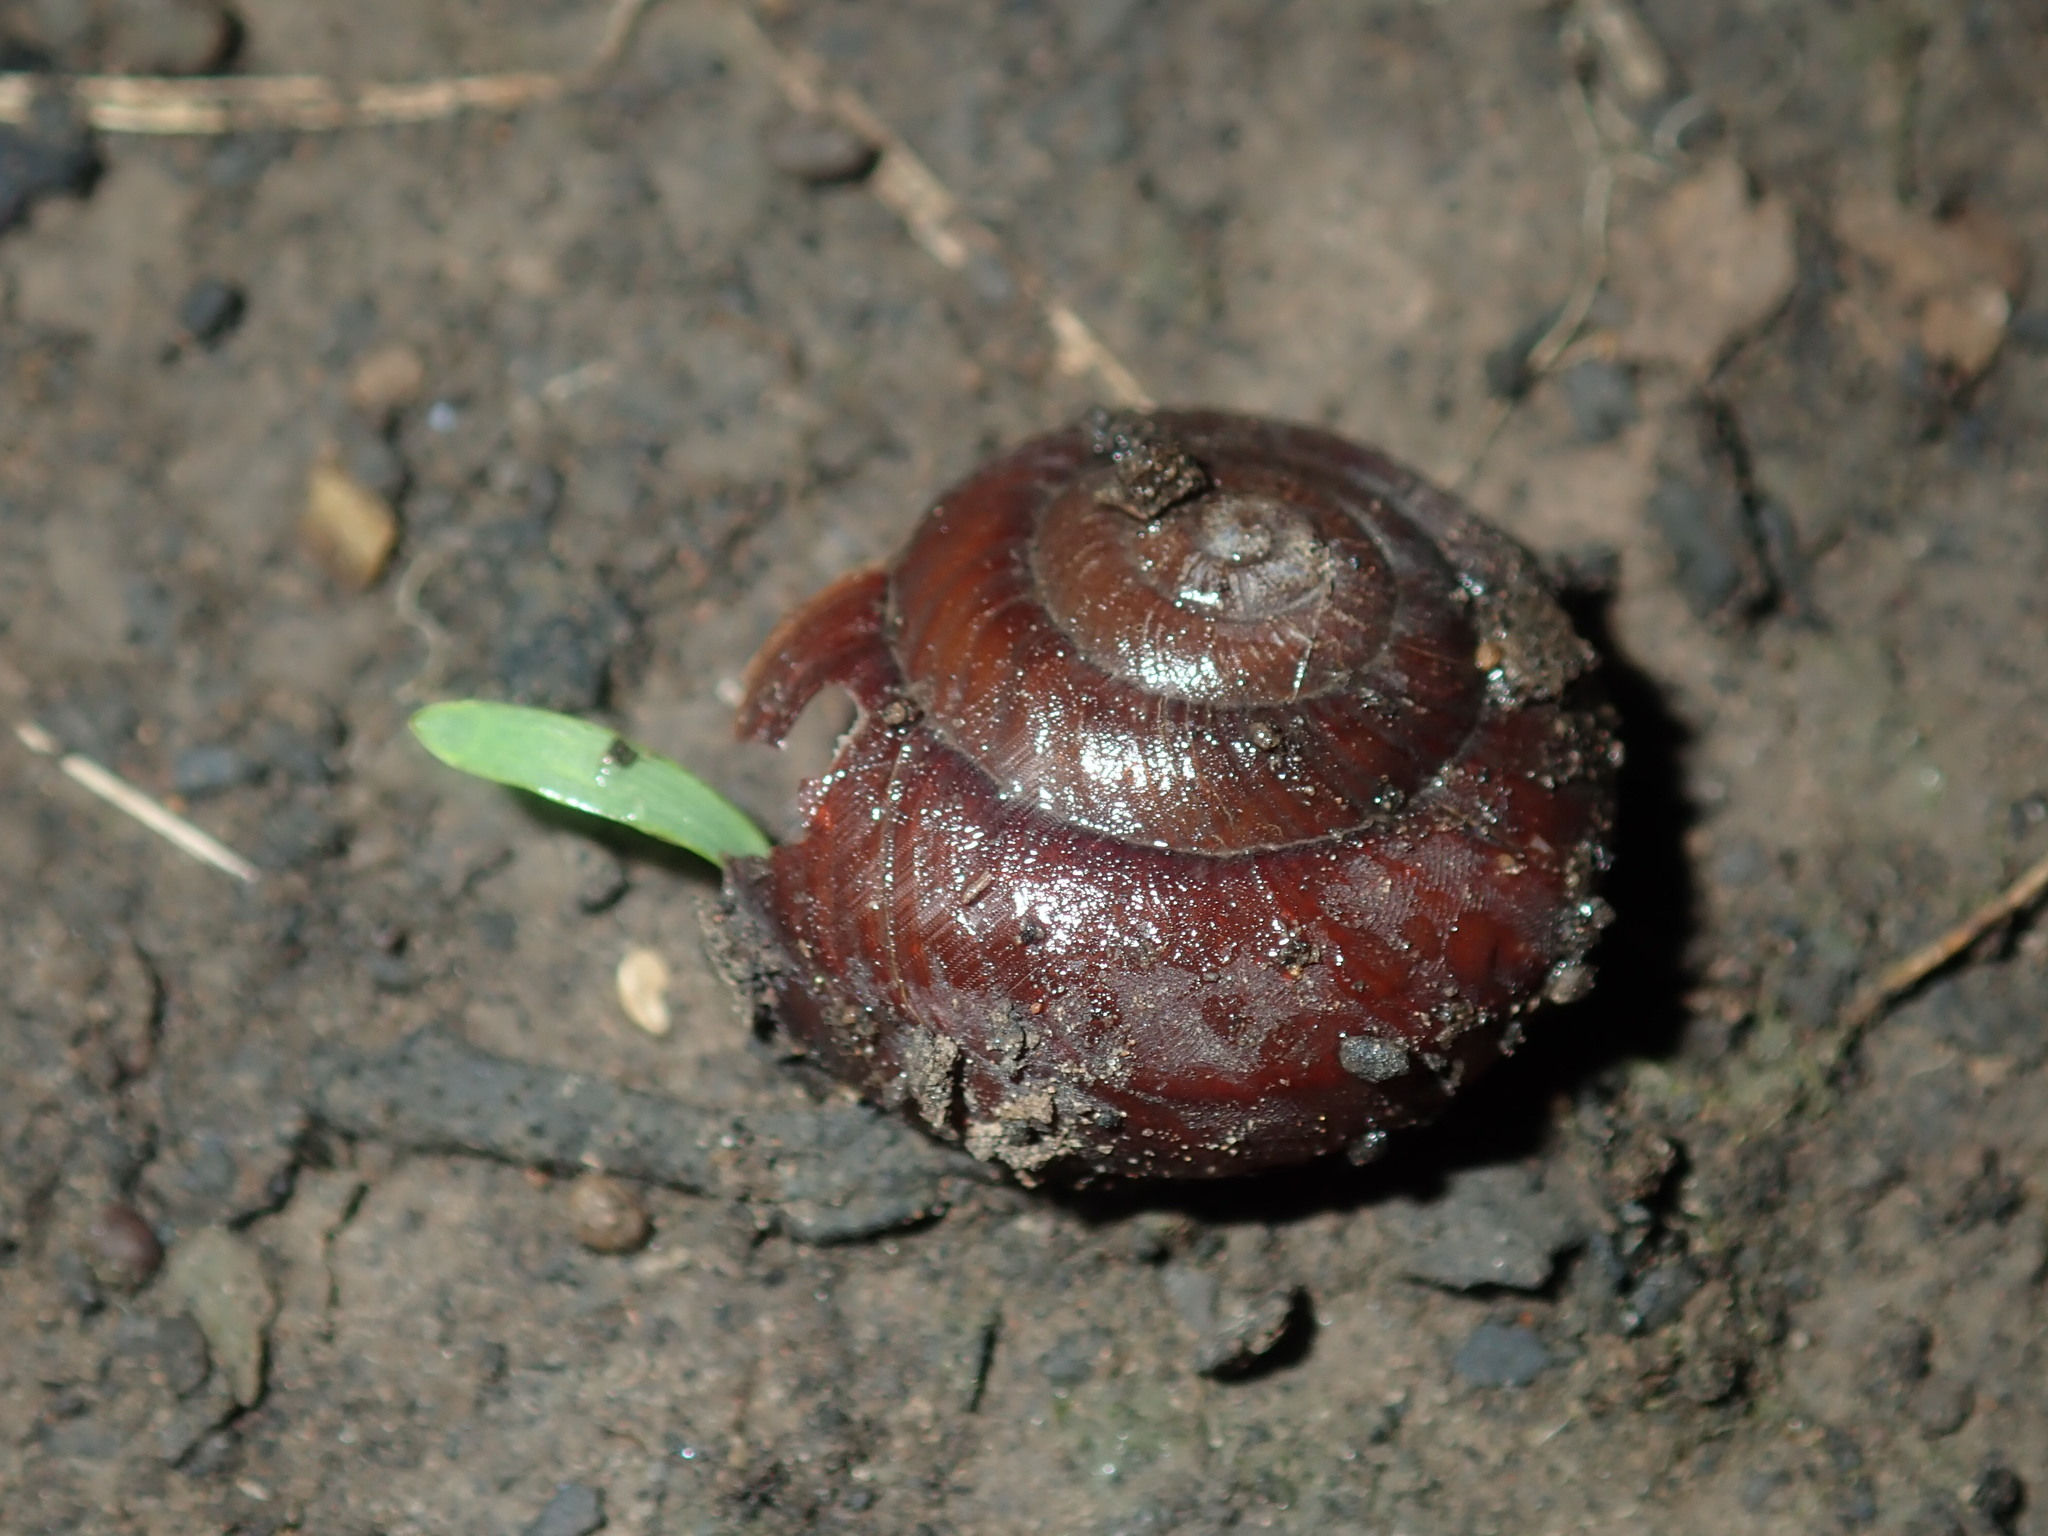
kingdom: Animalia
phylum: Mollusca
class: Gastropoda
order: Stylommatophora
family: Camaenidae
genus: Sauroconcha
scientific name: Sauroconcha sheai
